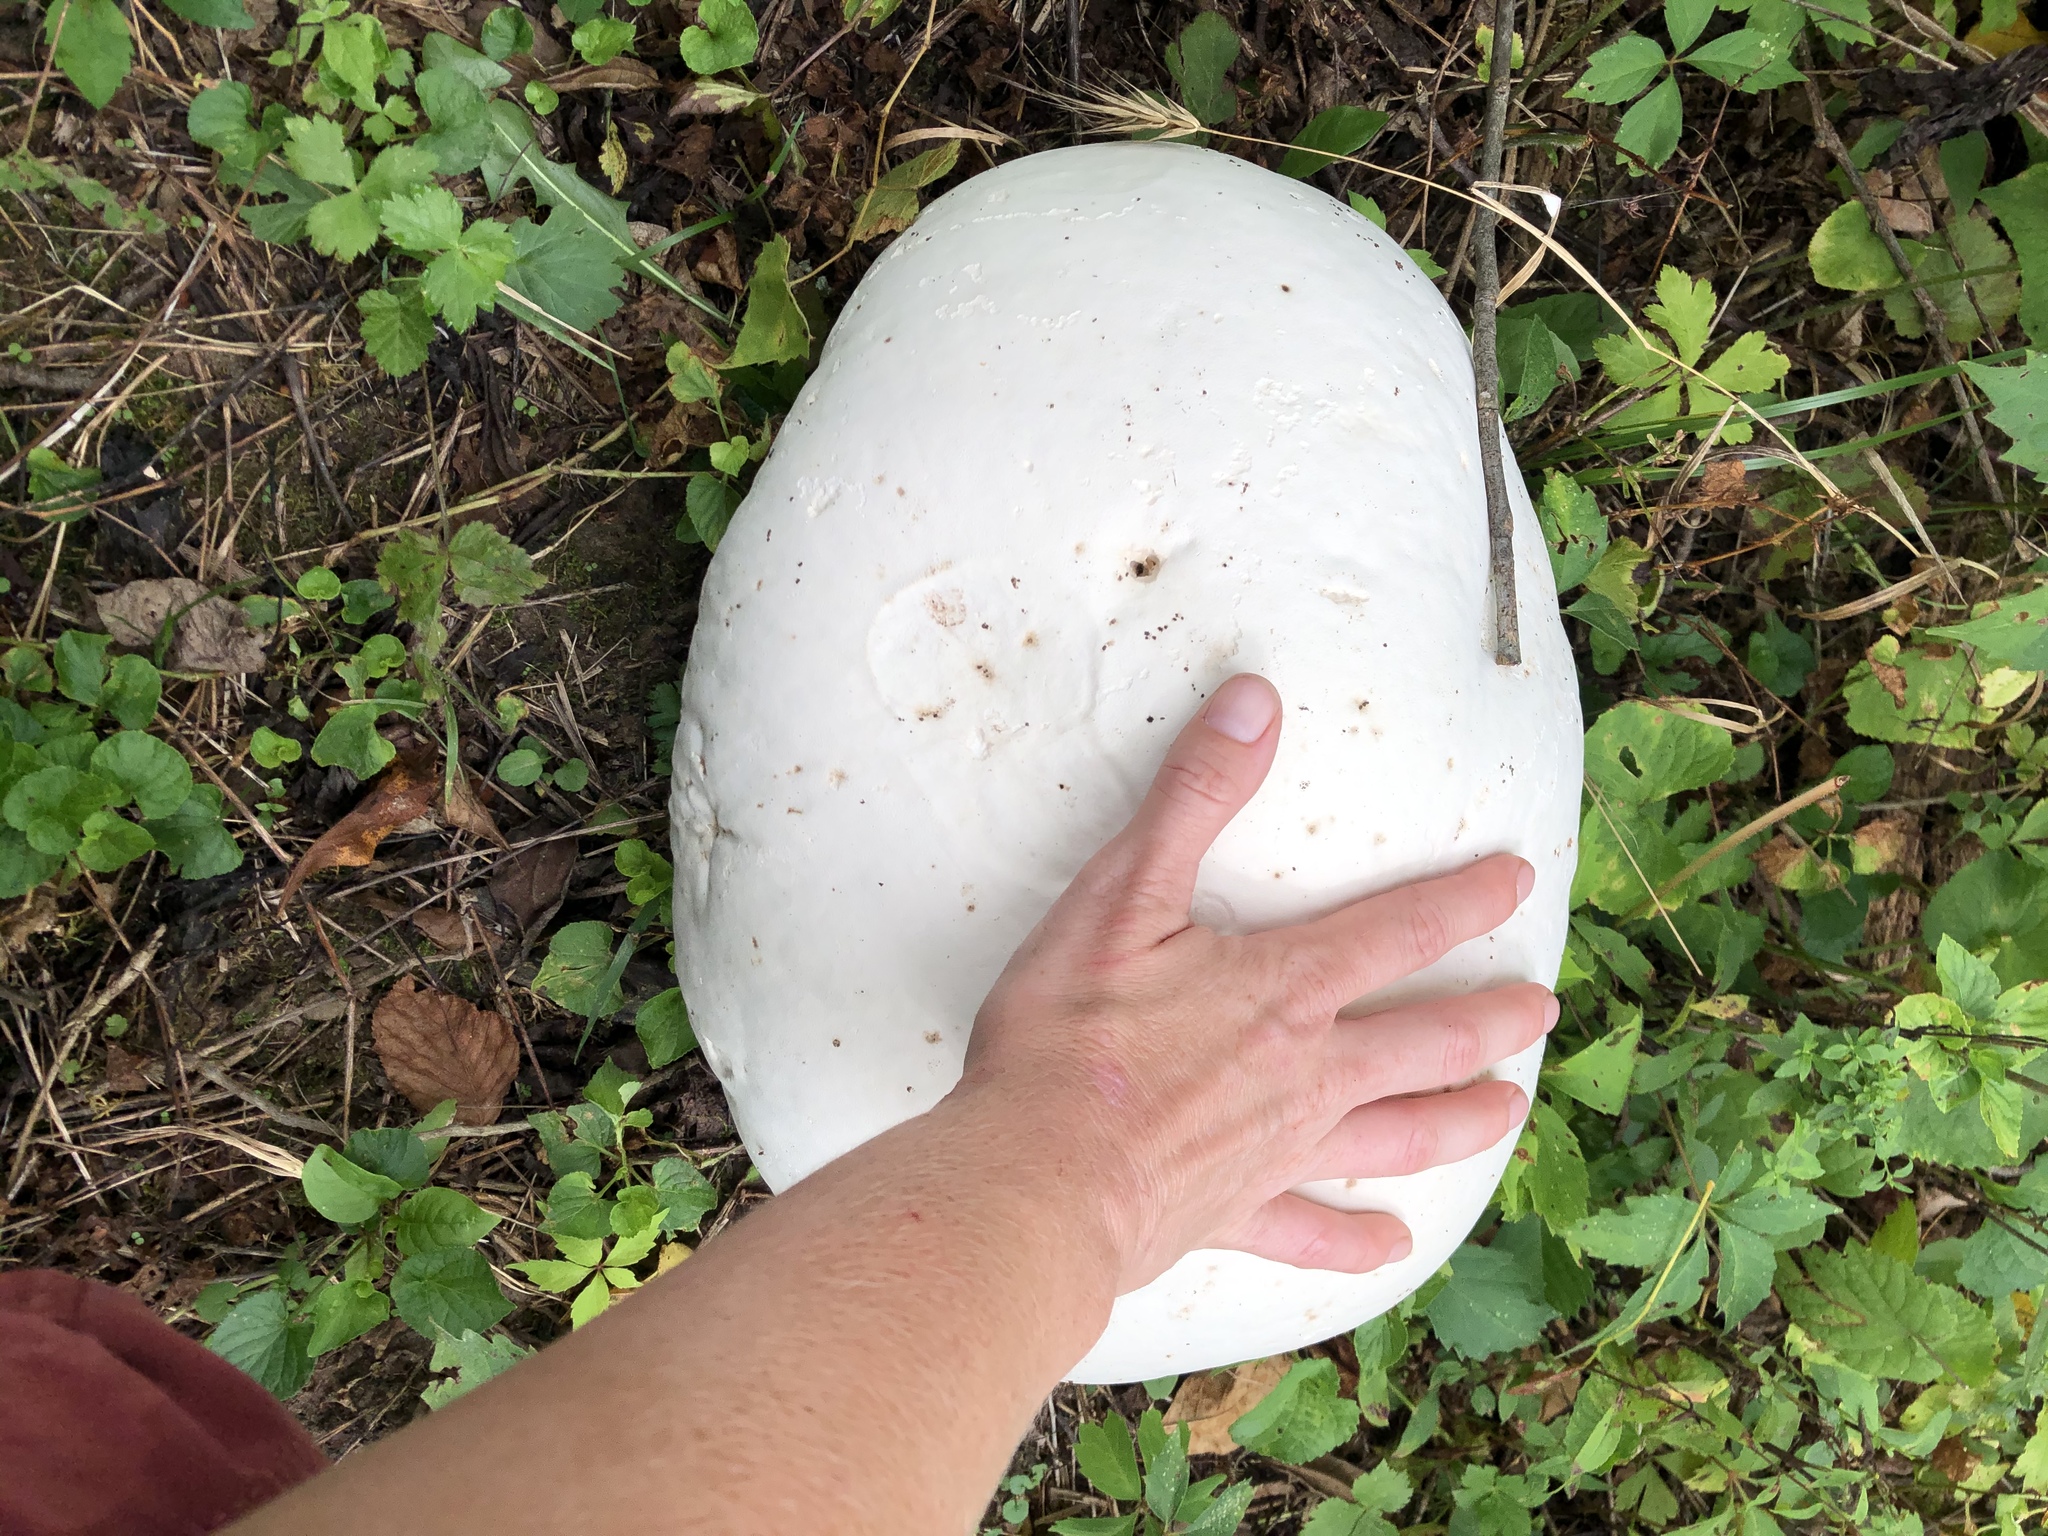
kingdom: Fungi
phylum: Basidiomycota
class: Agaricomycetes
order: Agaricales
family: Lycoperdaceae
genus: Calvatia
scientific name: Calvatia gigantea
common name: Giant puffball
